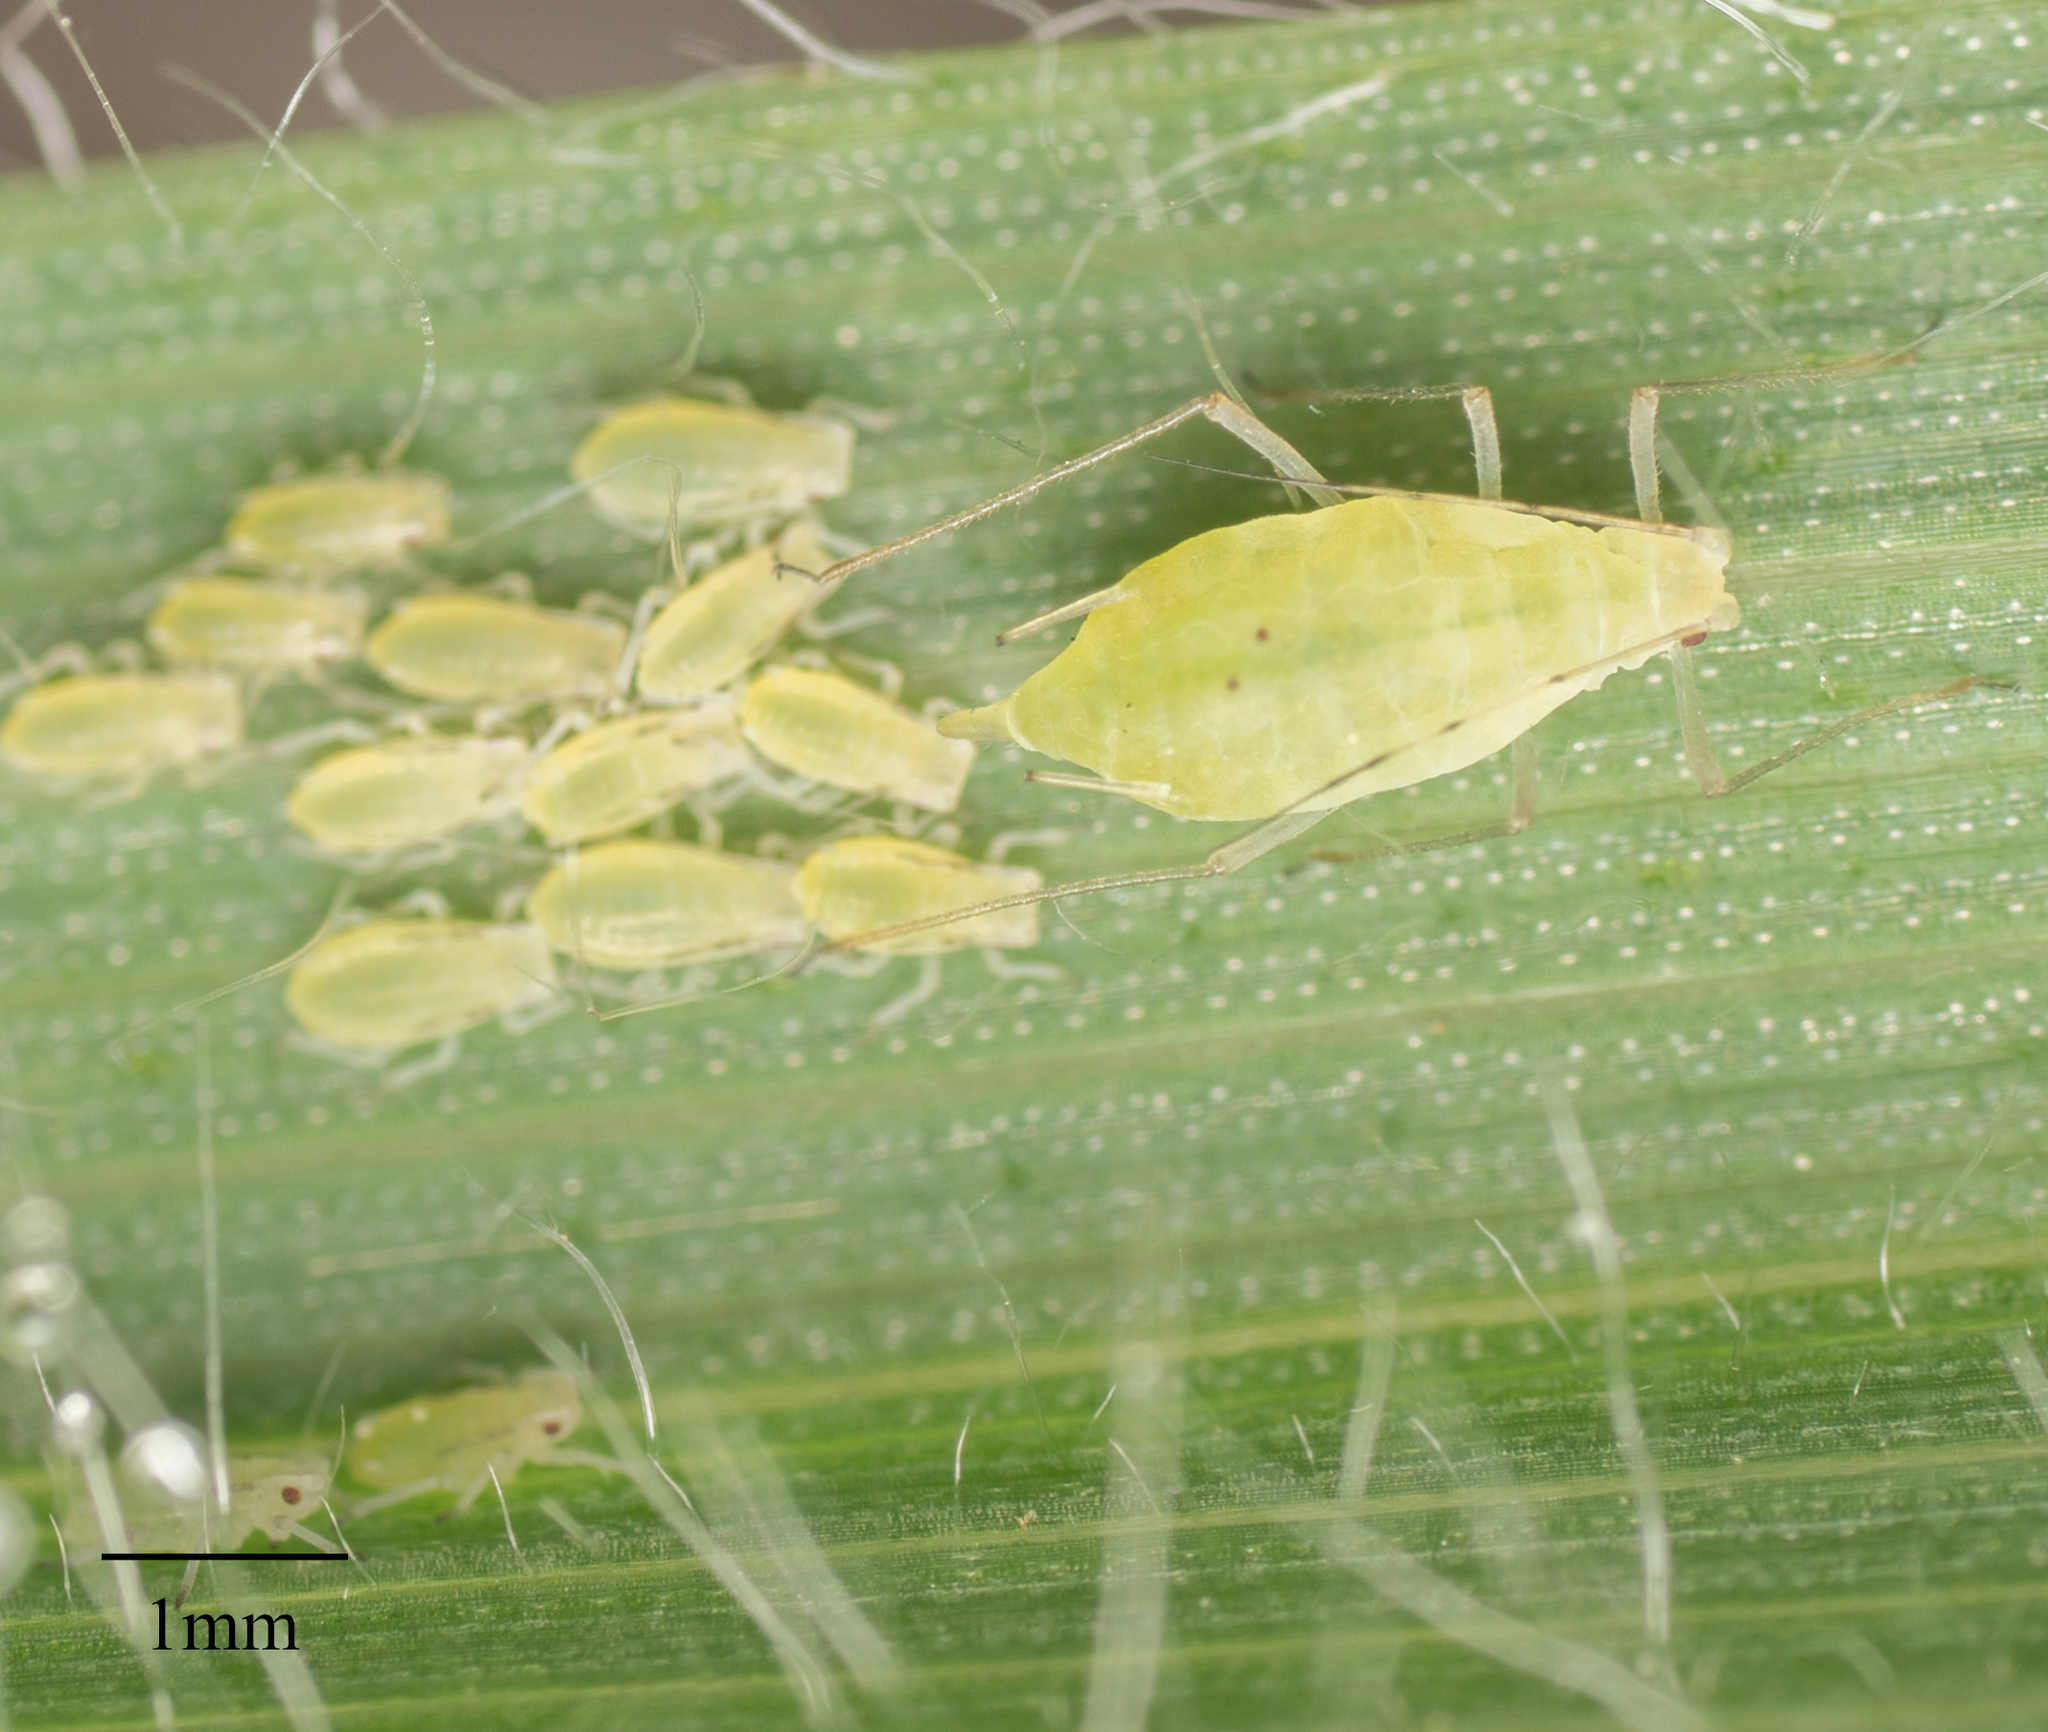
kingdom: Animalia
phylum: Arthropoda
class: Insecta
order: Hemiptera
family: Aphididae
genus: Metopolophium
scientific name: Metopolophium dirhodum
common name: Rose-grass aphid
